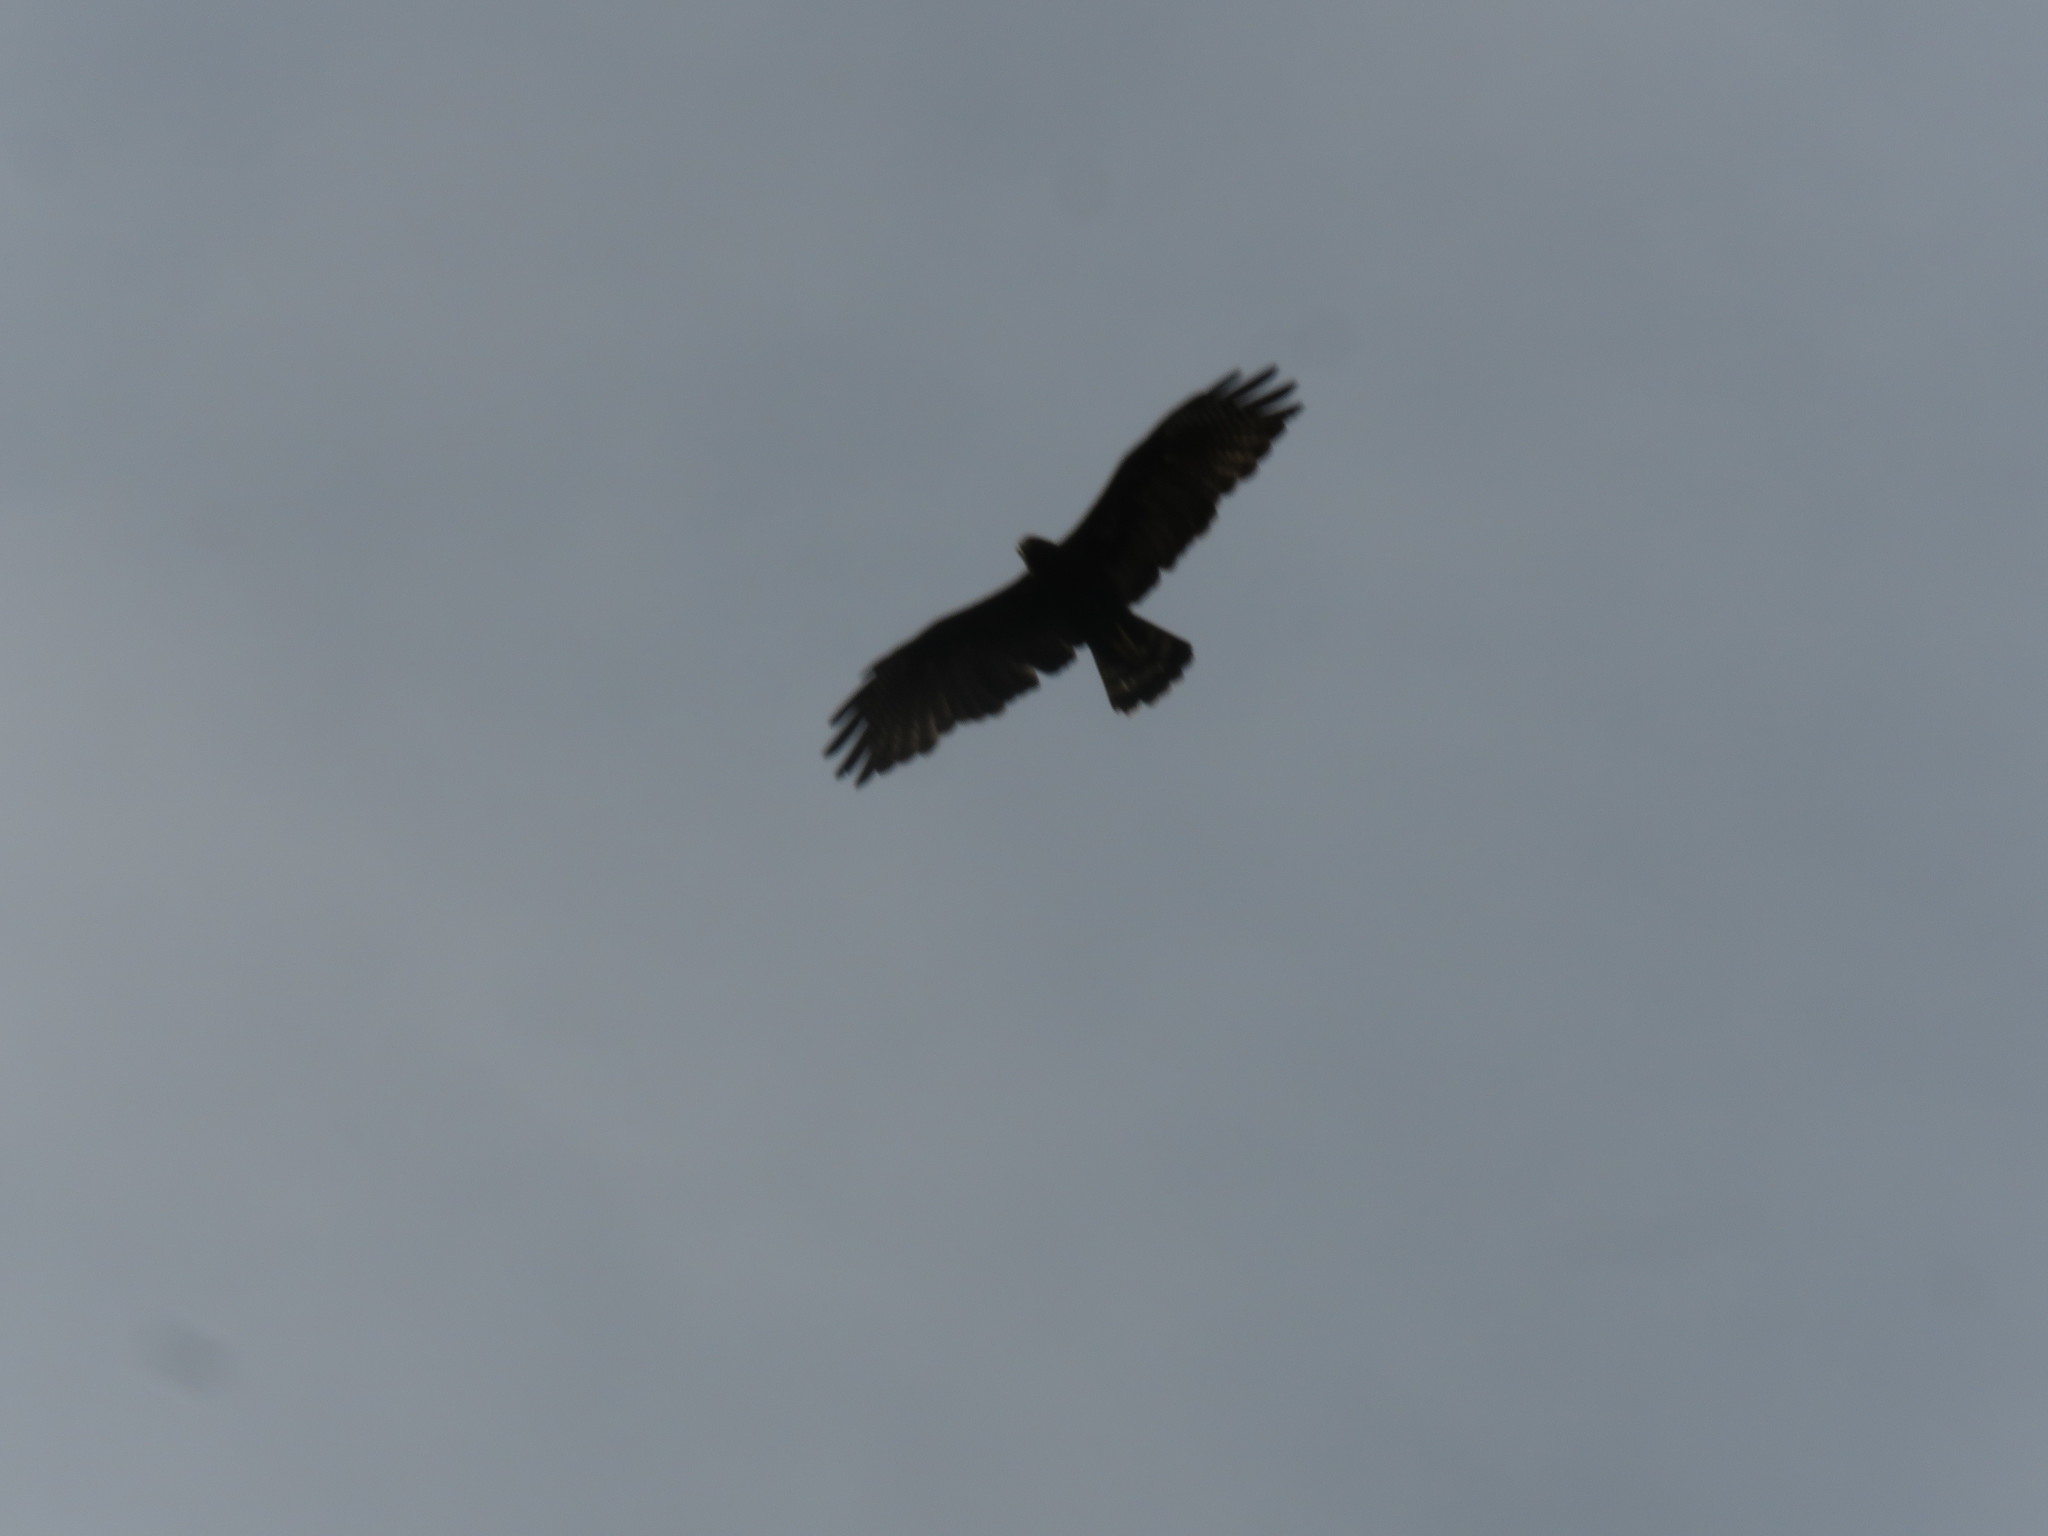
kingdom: Animalia
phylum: Chordata
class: Aves
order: Accipitriformes
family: Accipitridae
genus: Buteo
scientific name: Buteo albonotatus
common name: Zone-tailed hawk
